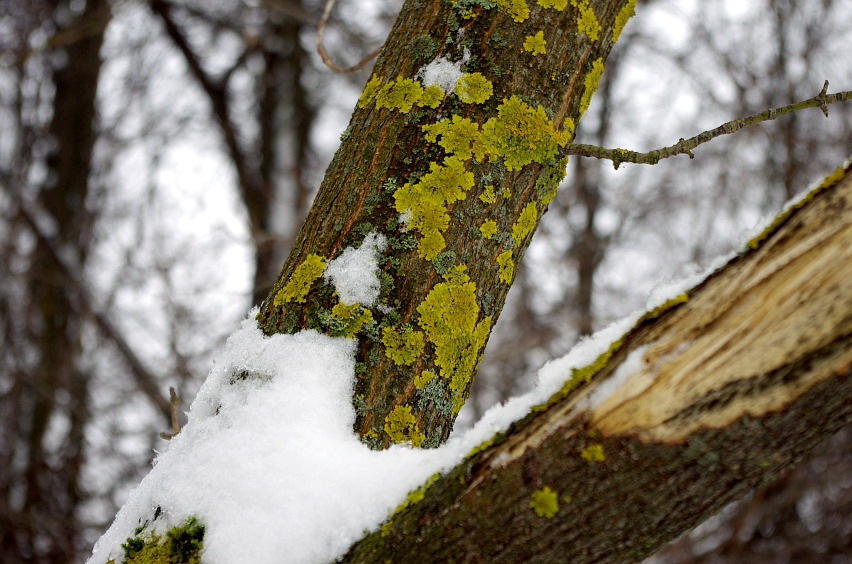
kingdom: Fungi
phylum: Ascomycota
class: Lecanoromycetes
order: Teloschistales
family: Teloschistaceae
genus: Xanthoria
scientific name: Xanthoria parietina
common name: Common orange lichen
